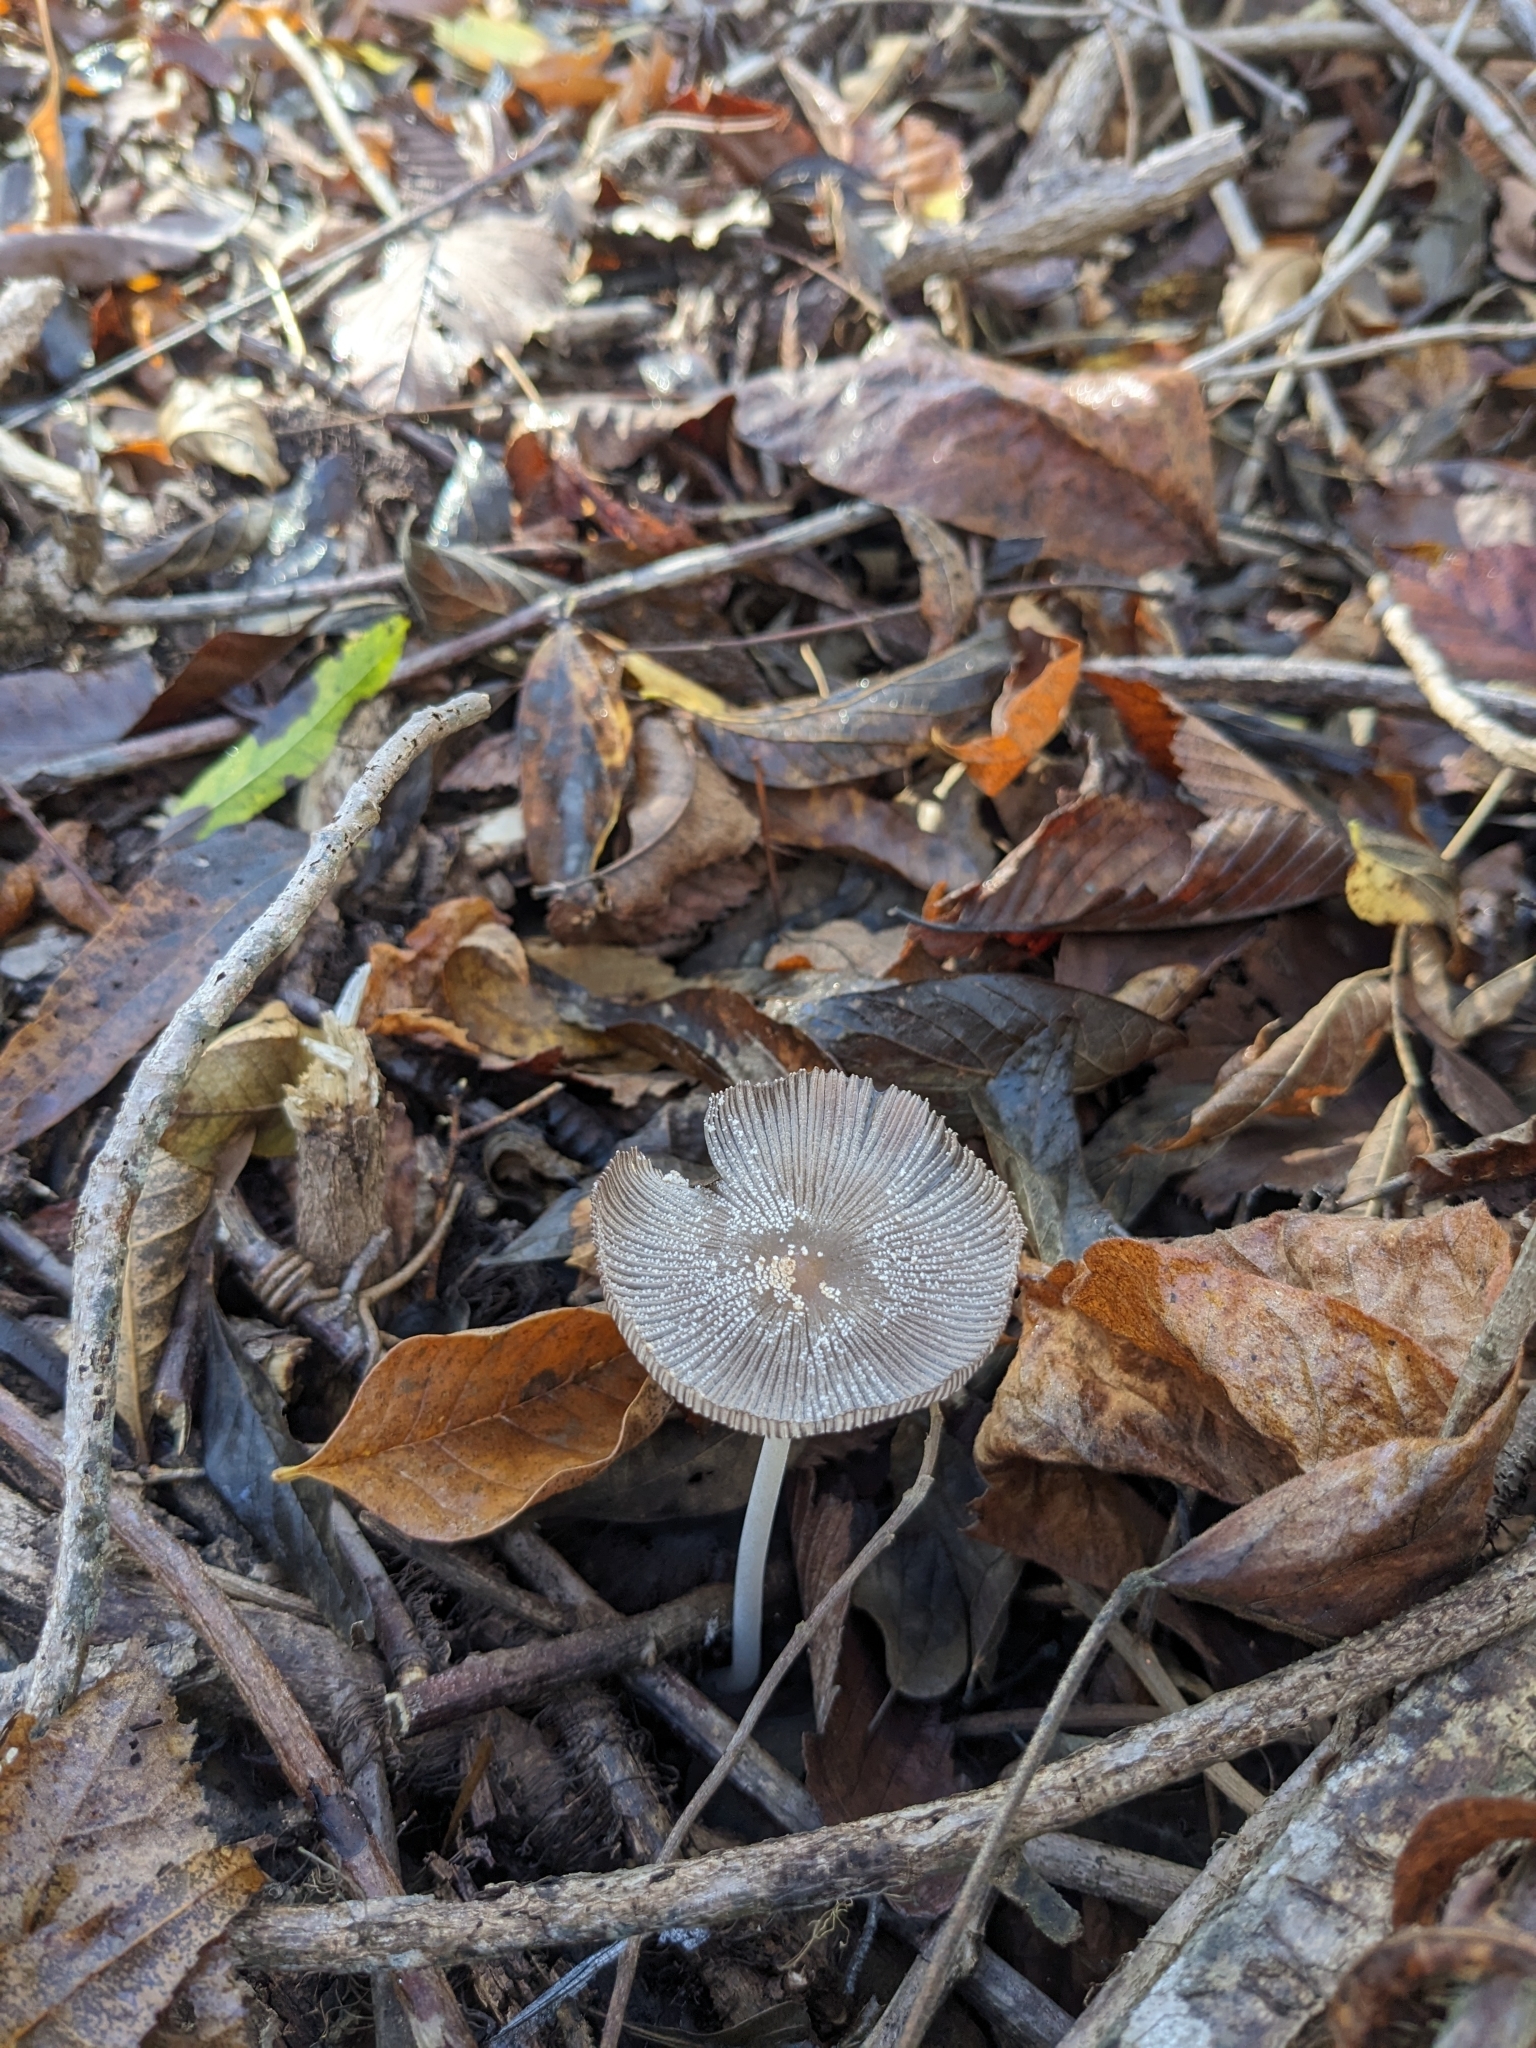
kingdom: Fungi
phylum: Basidiomycota
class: Agaricomycetes
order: Agaricales
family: Psathyrellaceae
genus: Coprinopsis
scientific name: Coprinopsis lagopus
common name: Hare'sfoot inkcap
